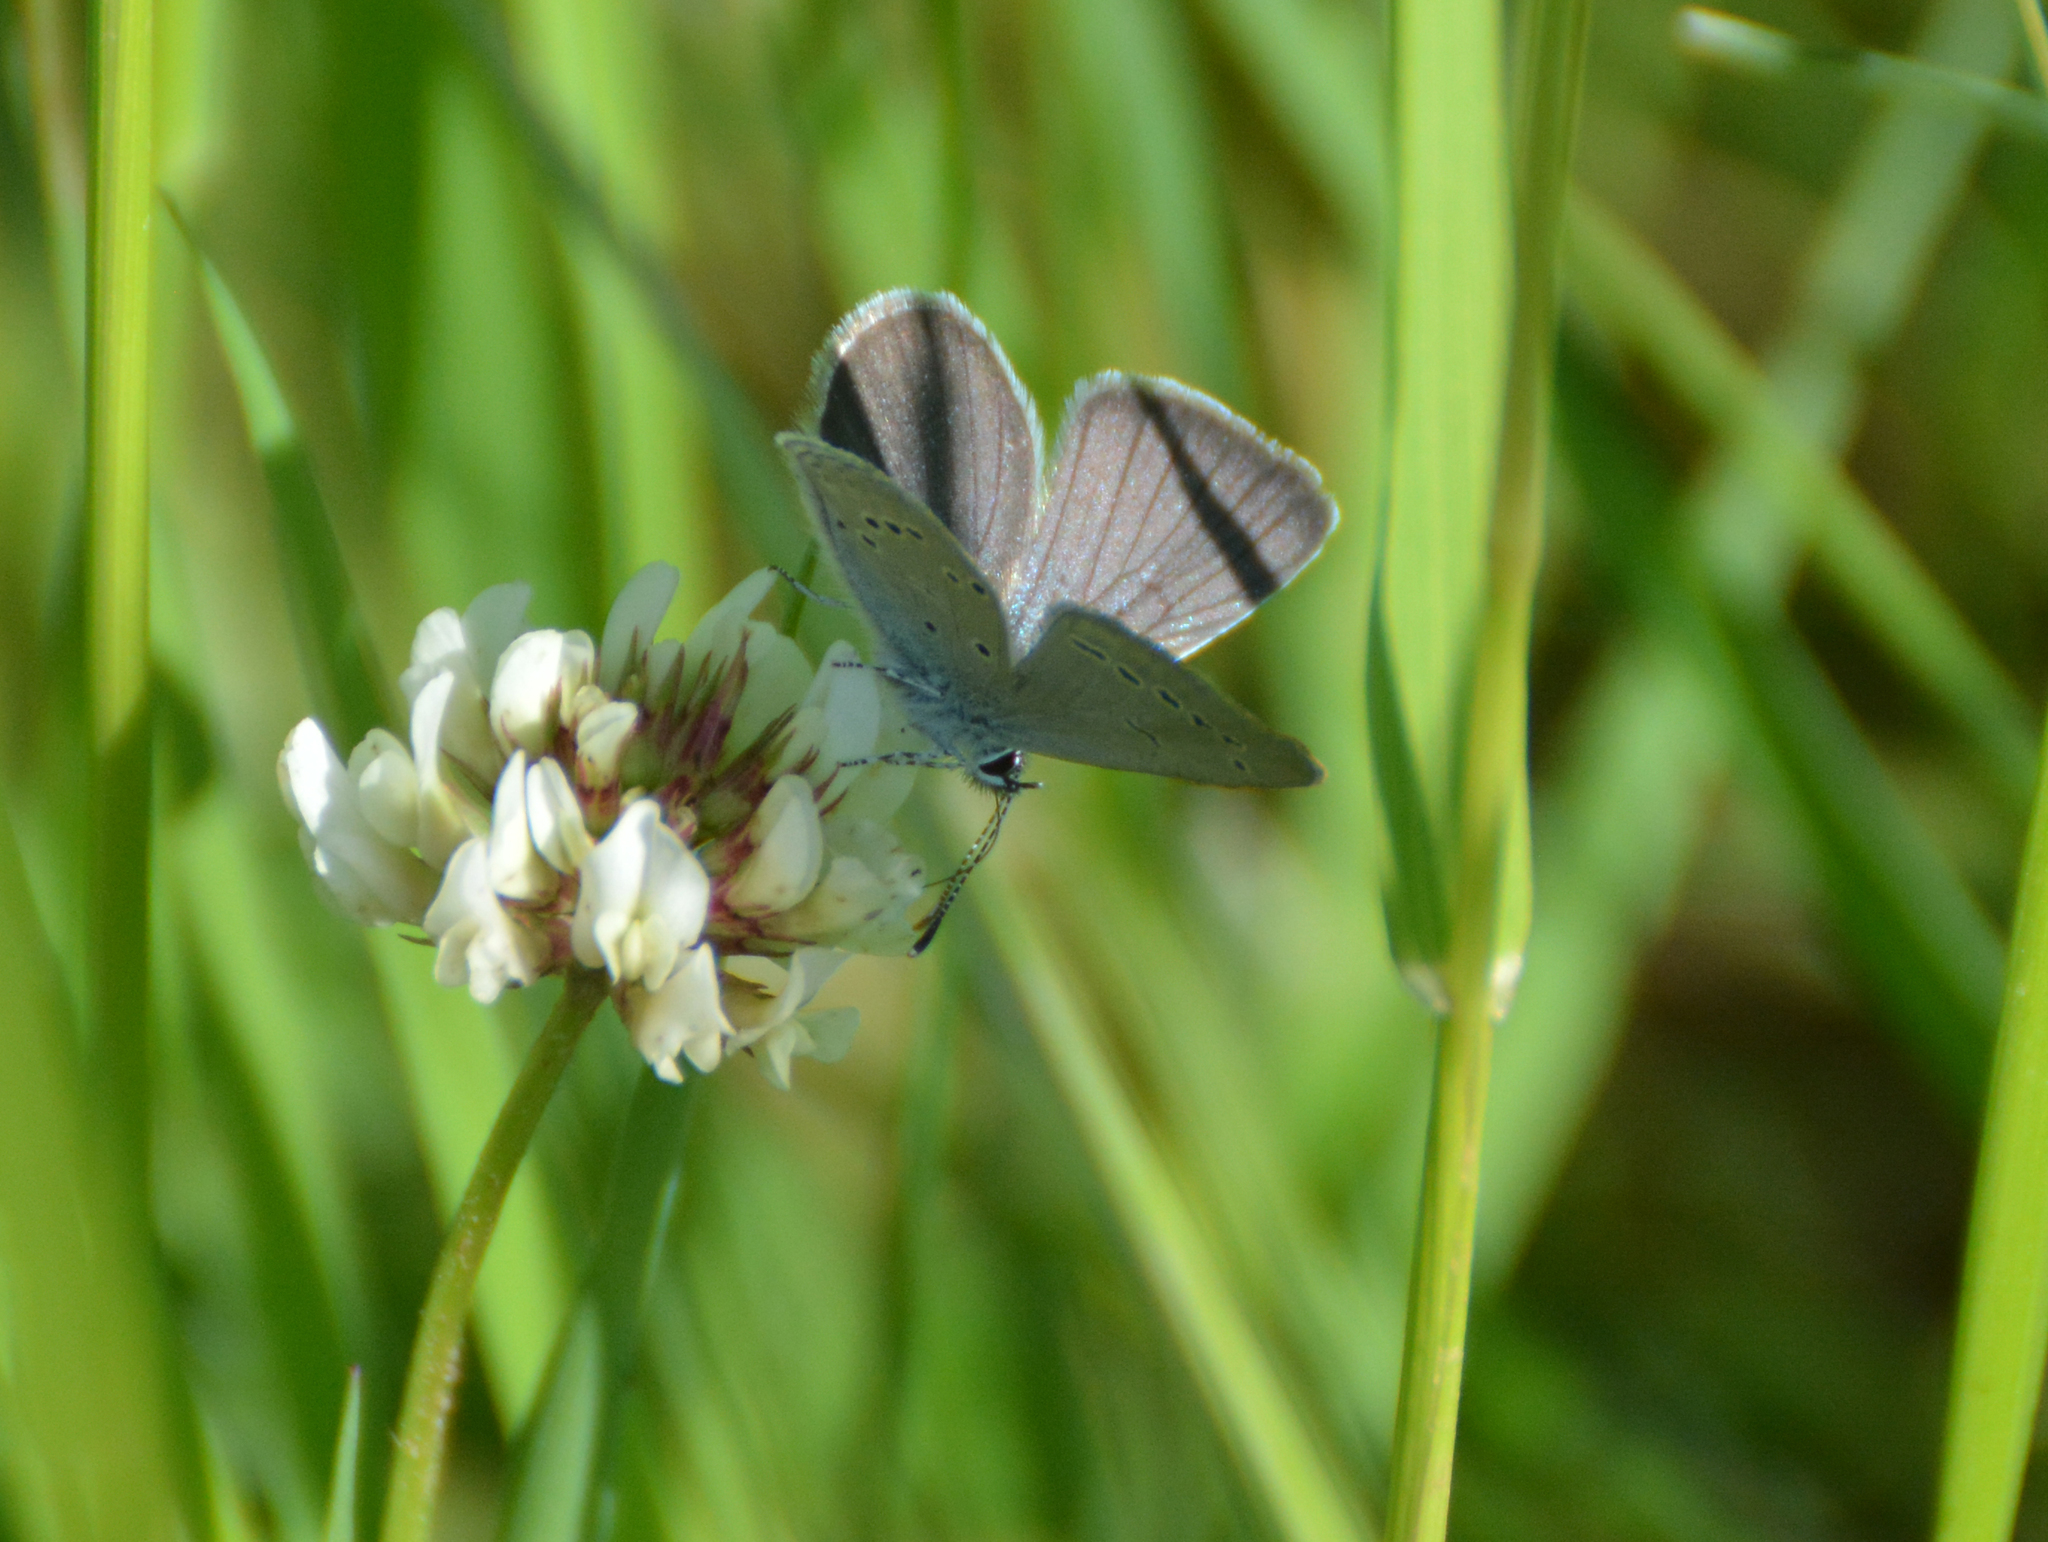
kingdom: Animalia
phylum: Arthropoda
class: Insecta
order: Lepidoptera
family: Lycaenidae
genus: Cupido
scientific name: Cupido minimus
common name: Small blue
